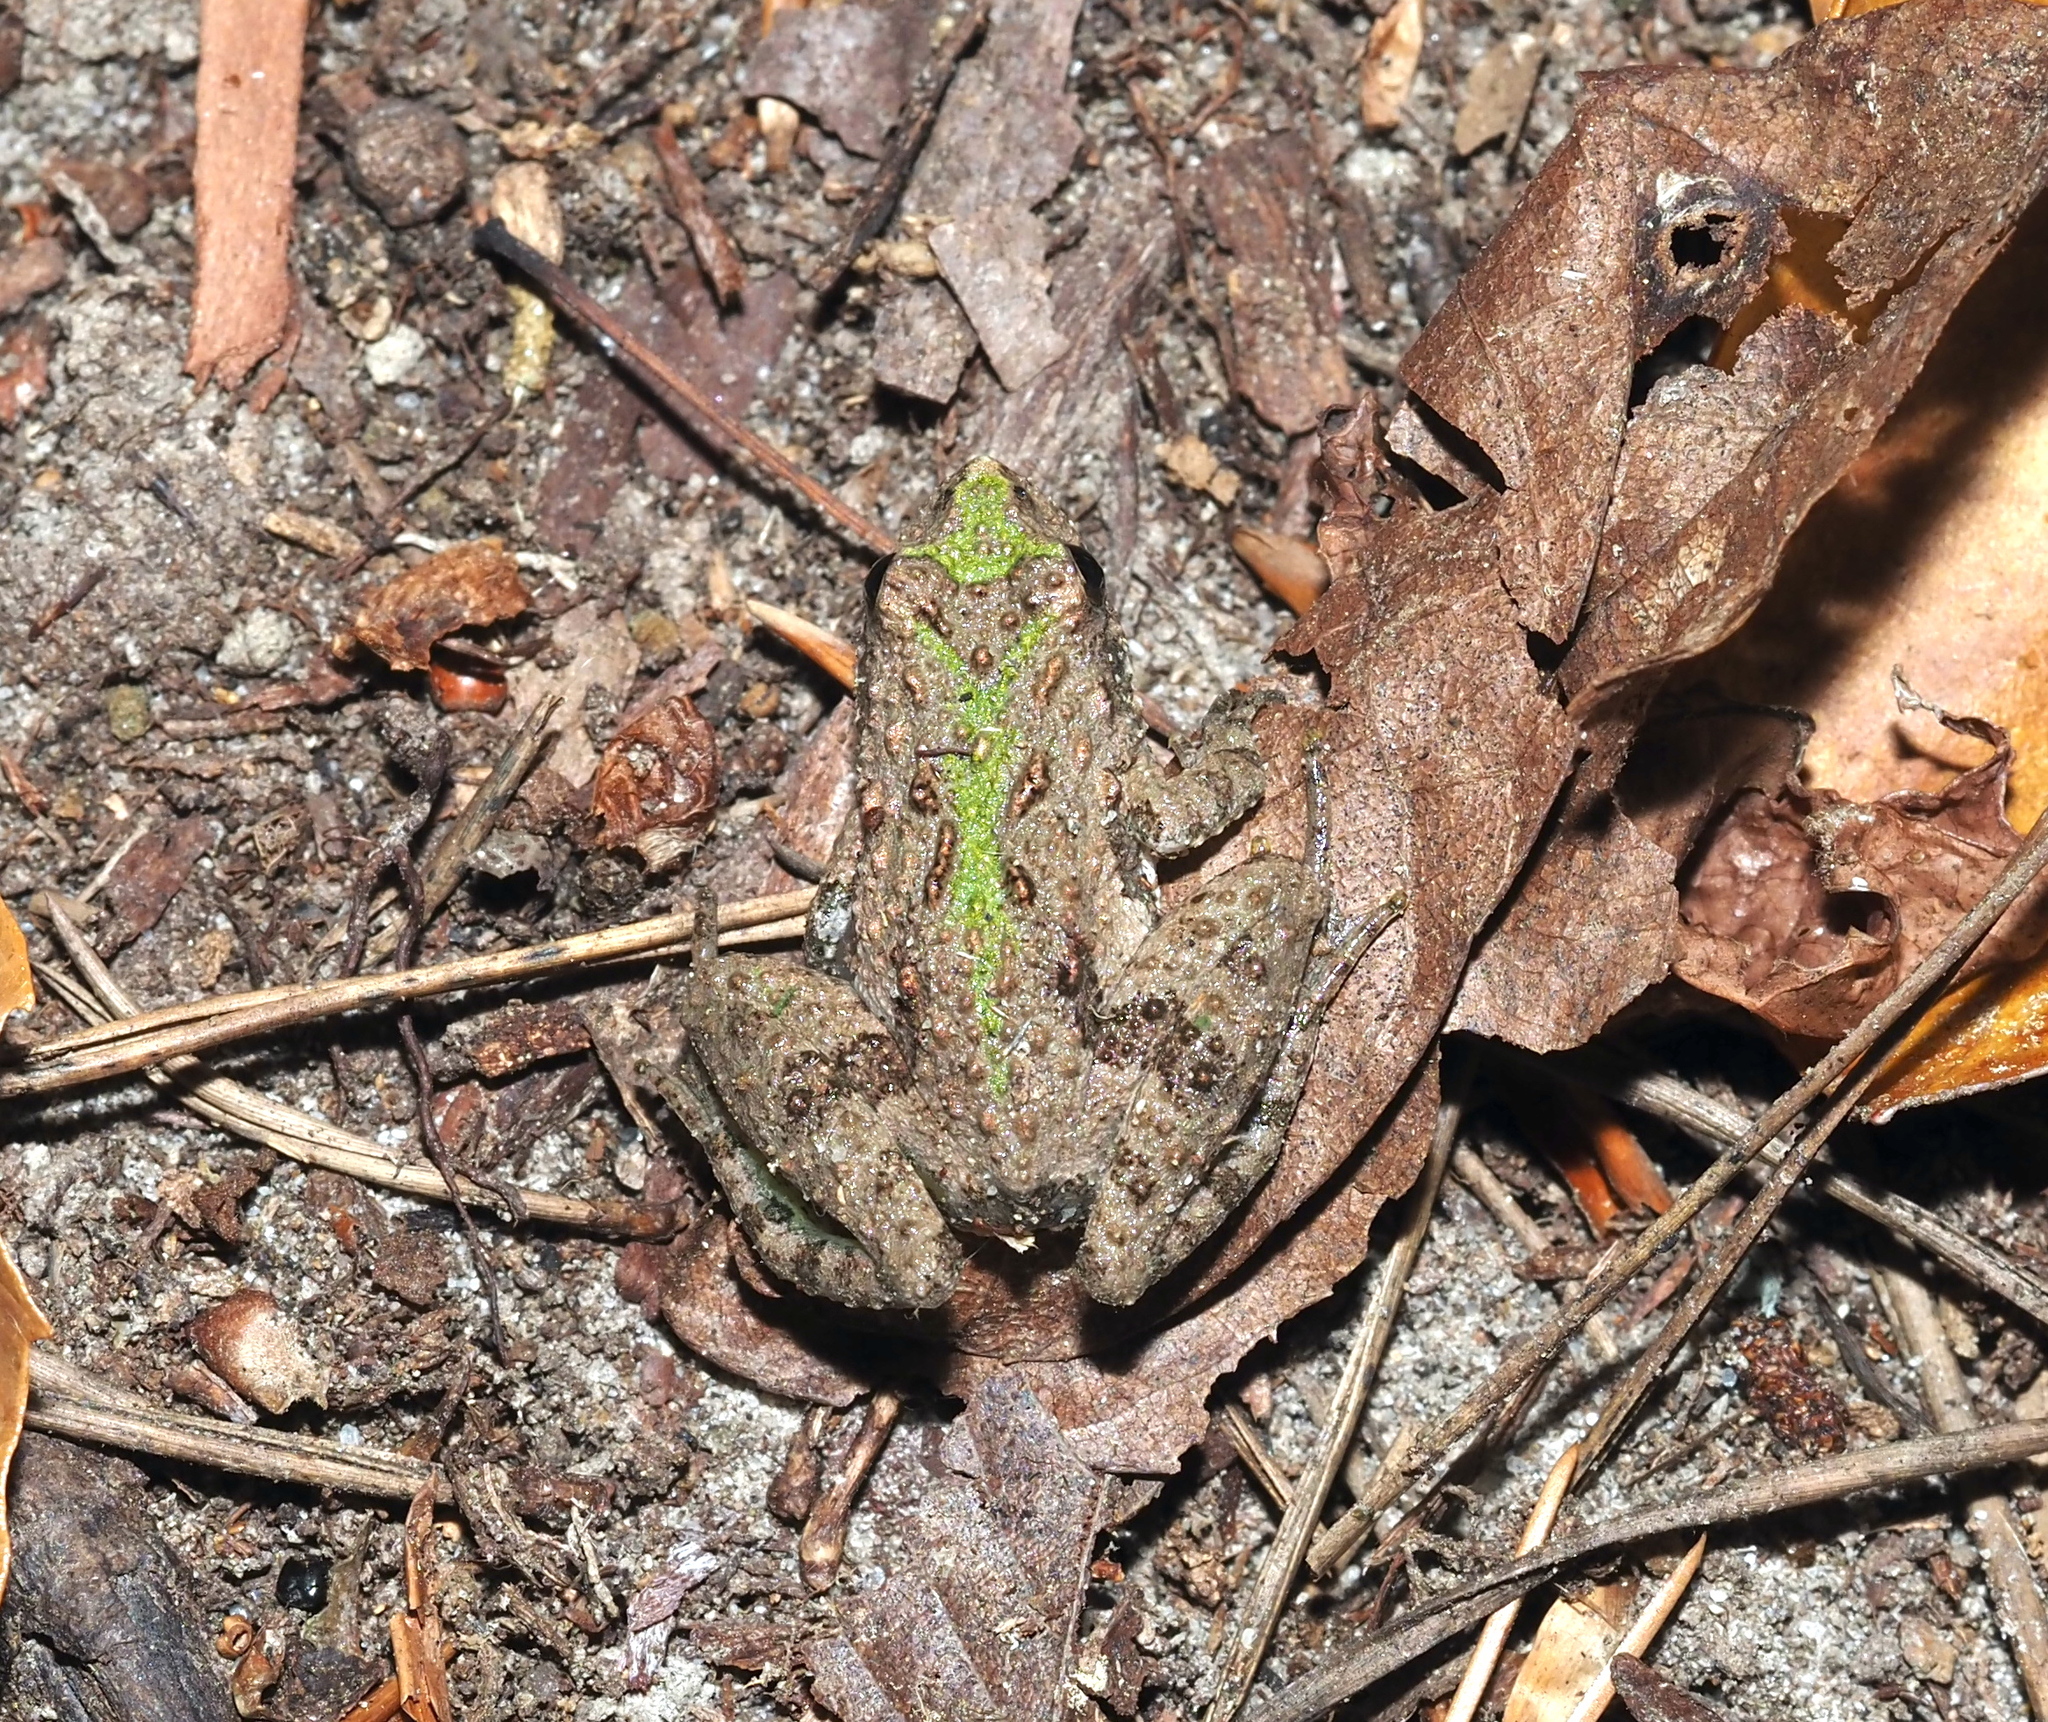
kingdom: Animalia
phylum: Chordata
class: Amphibia
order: Anura
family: Hylidae
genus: Acris
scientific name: Acris crepitans
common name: Northern cricket frog
